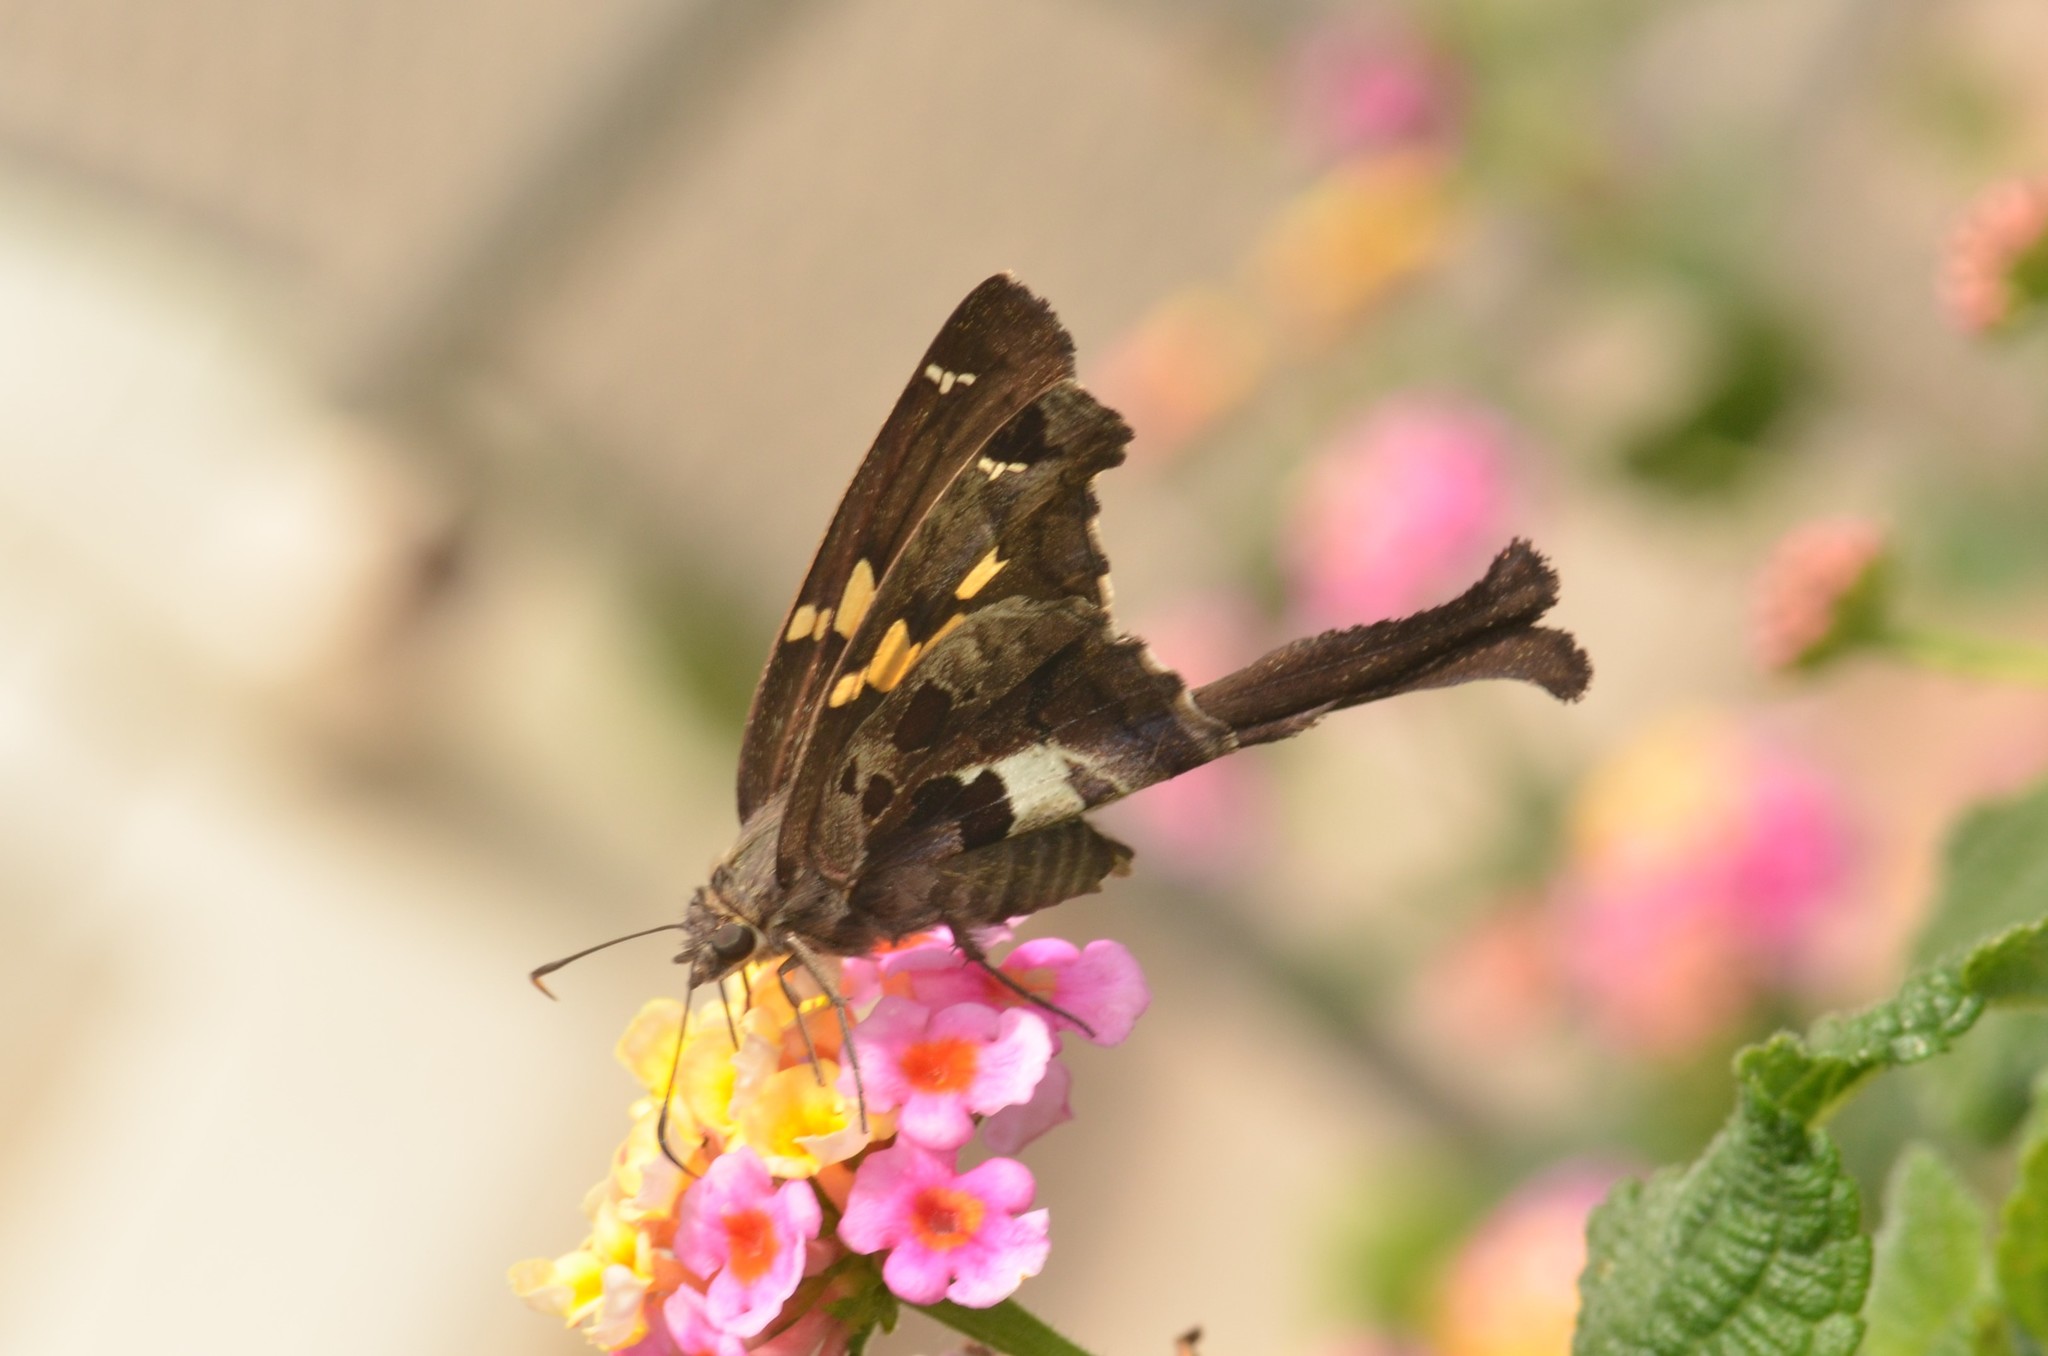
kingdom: Animalia
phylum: Arthropoda
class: Insecta
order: Lepidoptera
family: Hesperiidae
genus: Chioides
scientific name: Chioides zilpa
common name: Zilpa longtail
